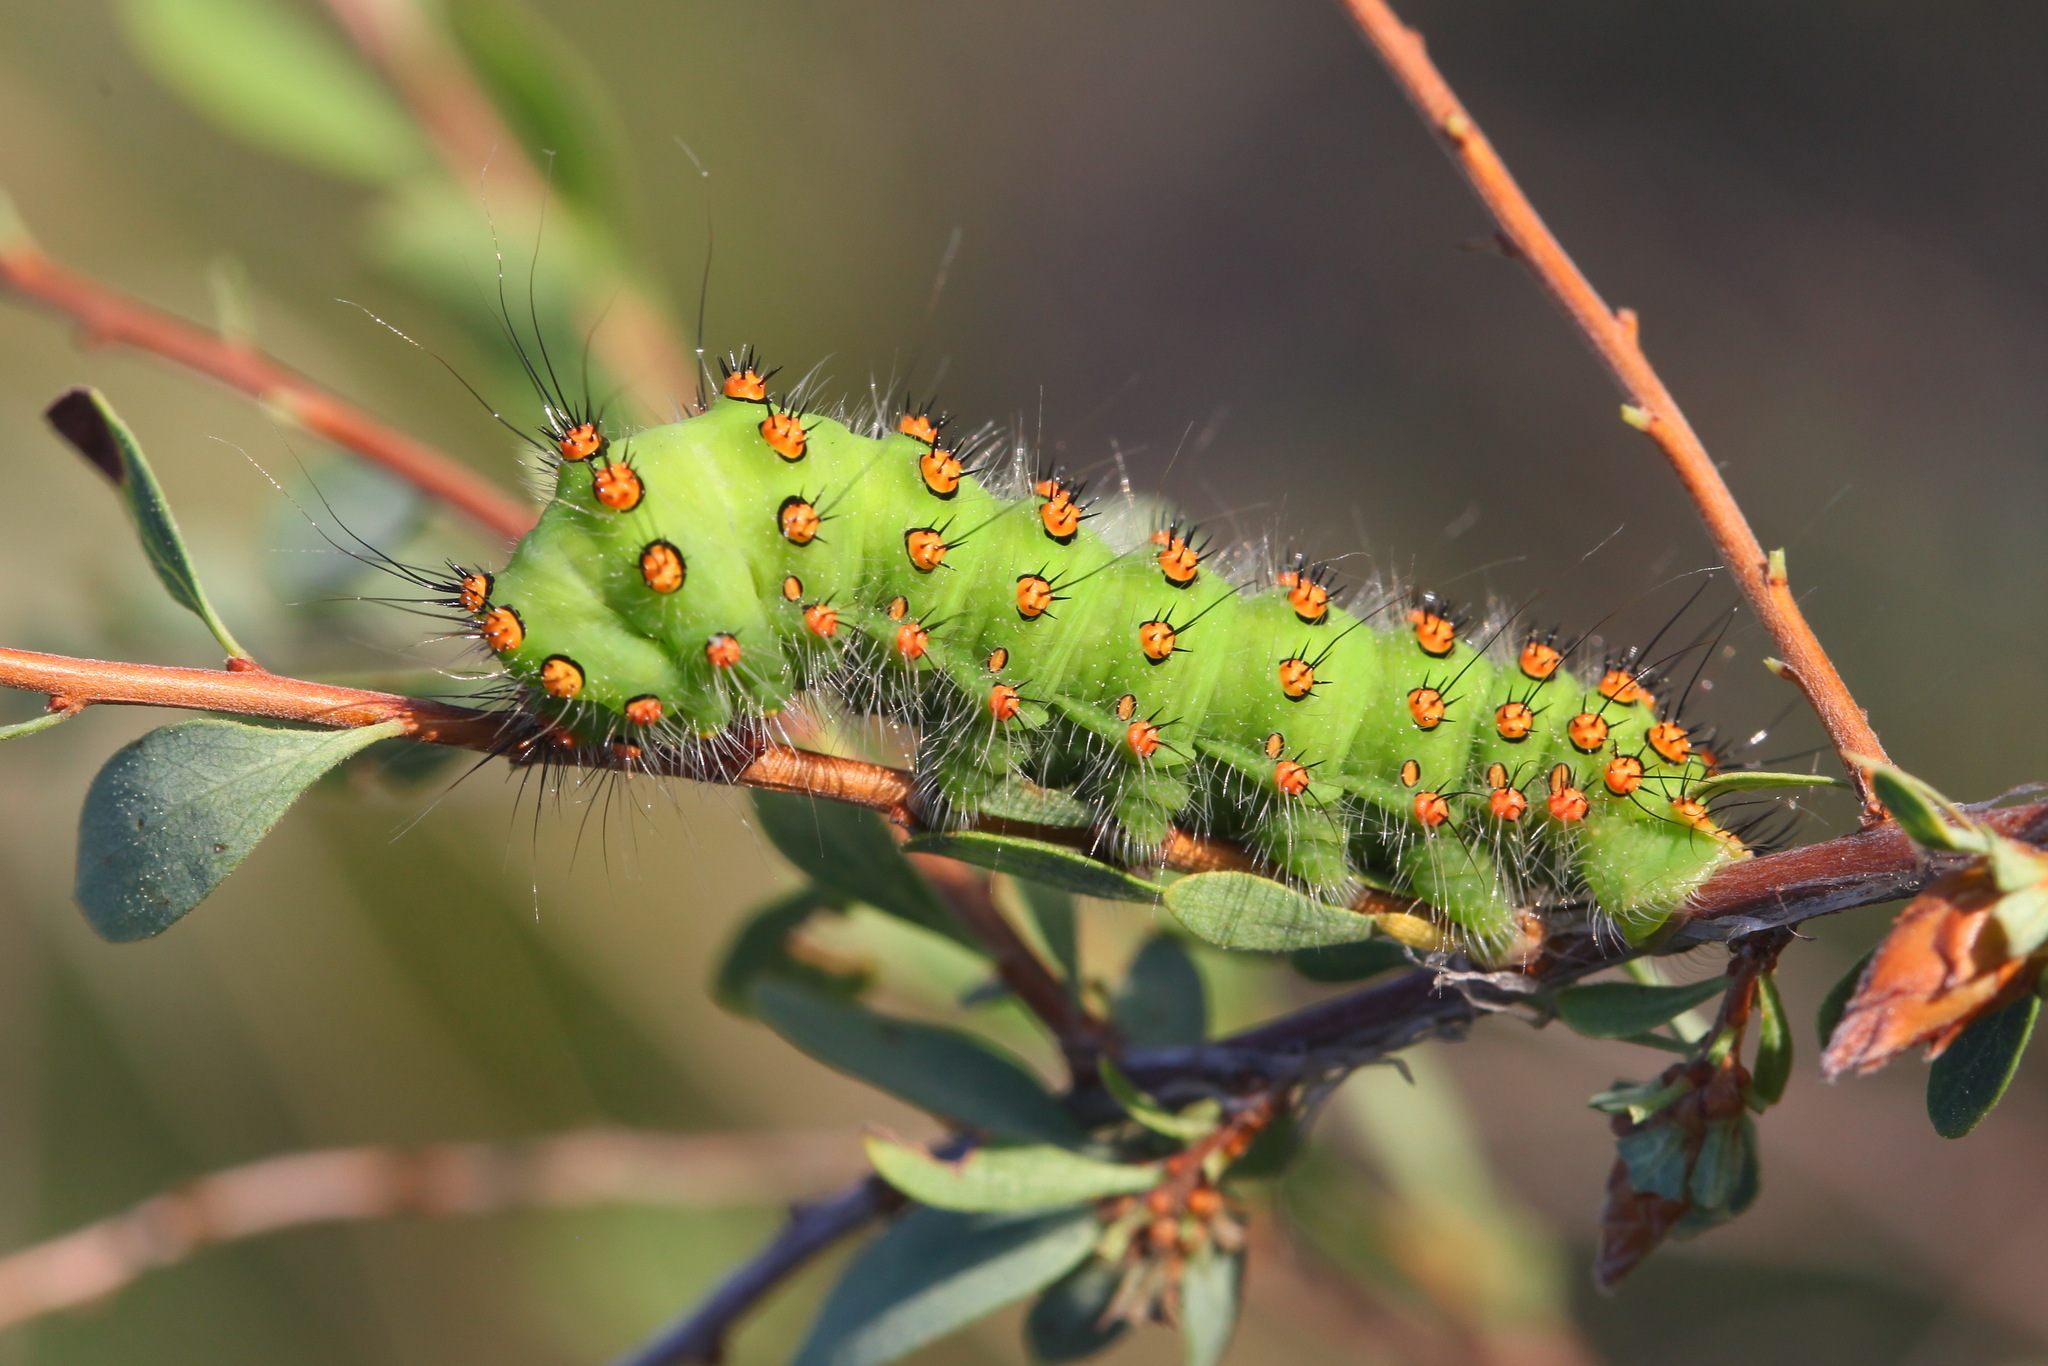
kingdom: Animalia
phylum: Arthropoda
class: Insecta
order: Lepidoptera
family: Saturniidae
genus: Saturnia
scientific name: Saturnia pavonia
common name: Emperor moth
